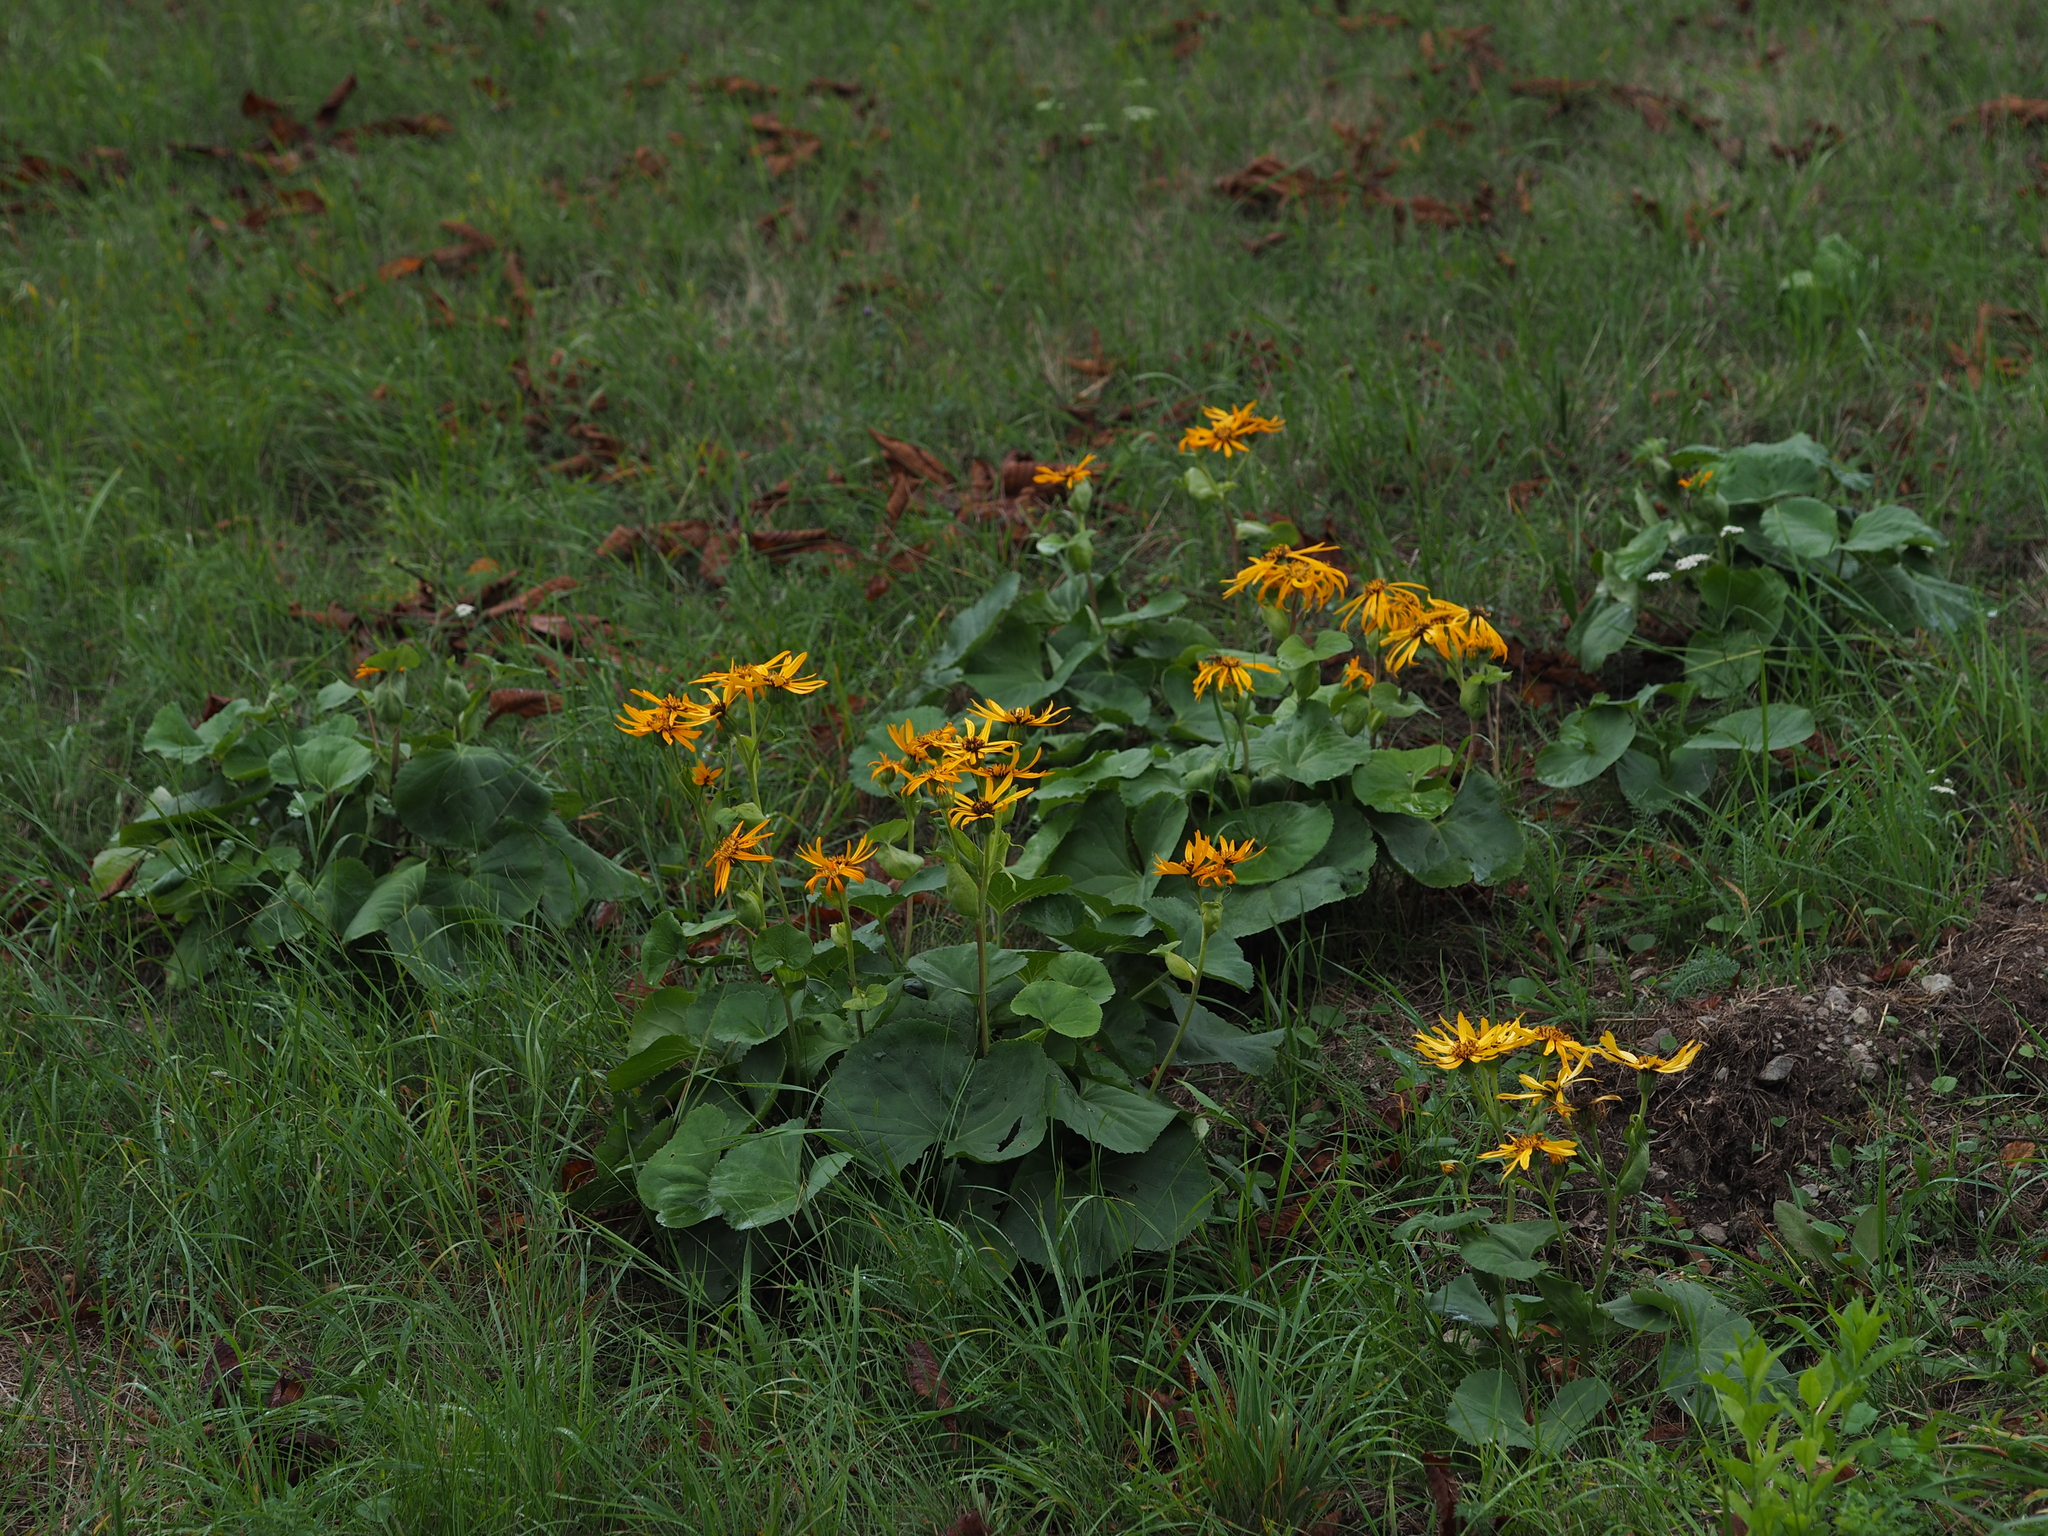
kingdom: Plantae
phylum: Tracheophyta
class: Magnoliopsida
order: Asterales
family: Asteraceae
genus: Ligularia
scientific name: Ligularia dentata
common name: Leopardplant
